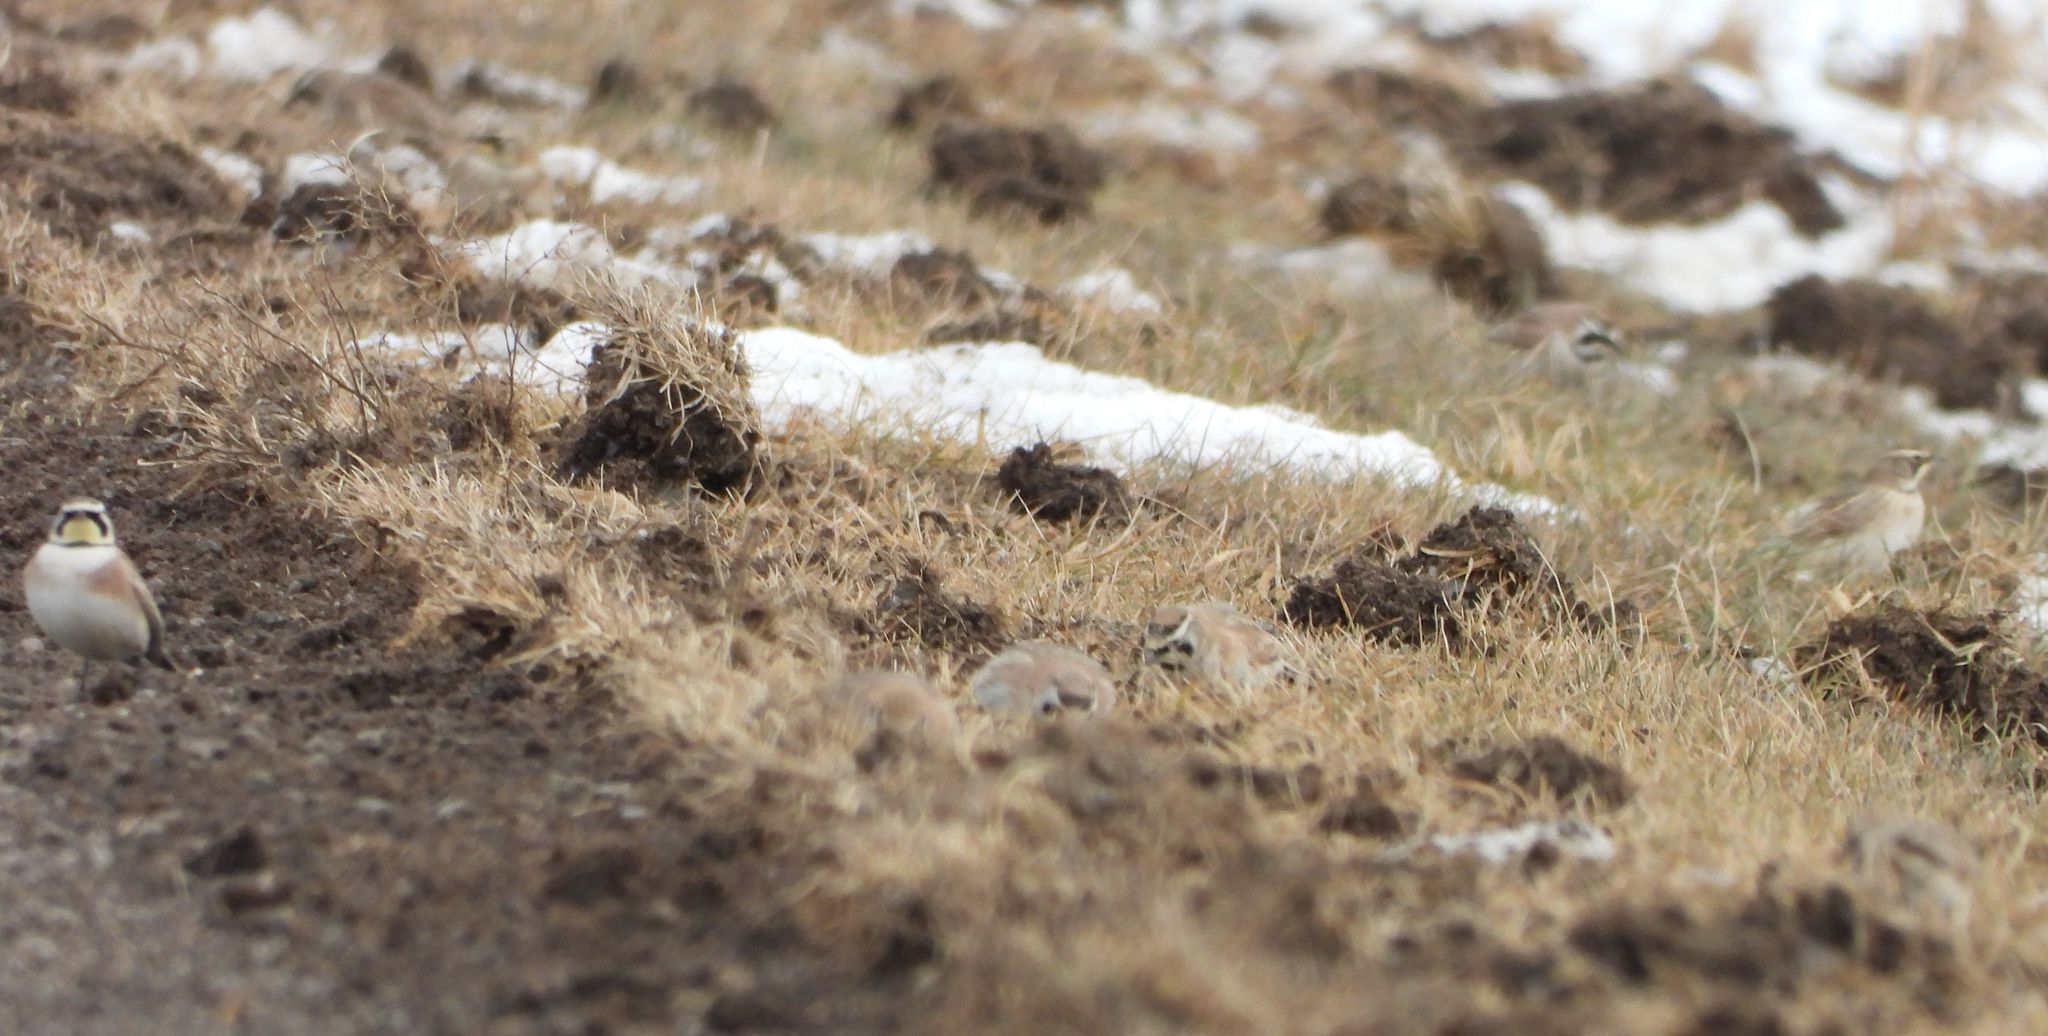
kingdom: Animalia
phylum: Chordata
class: Aves
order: Passeriformes
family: Alaudidae
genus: Eremophila
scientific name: Eremophila alpestris
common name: Horned lark
